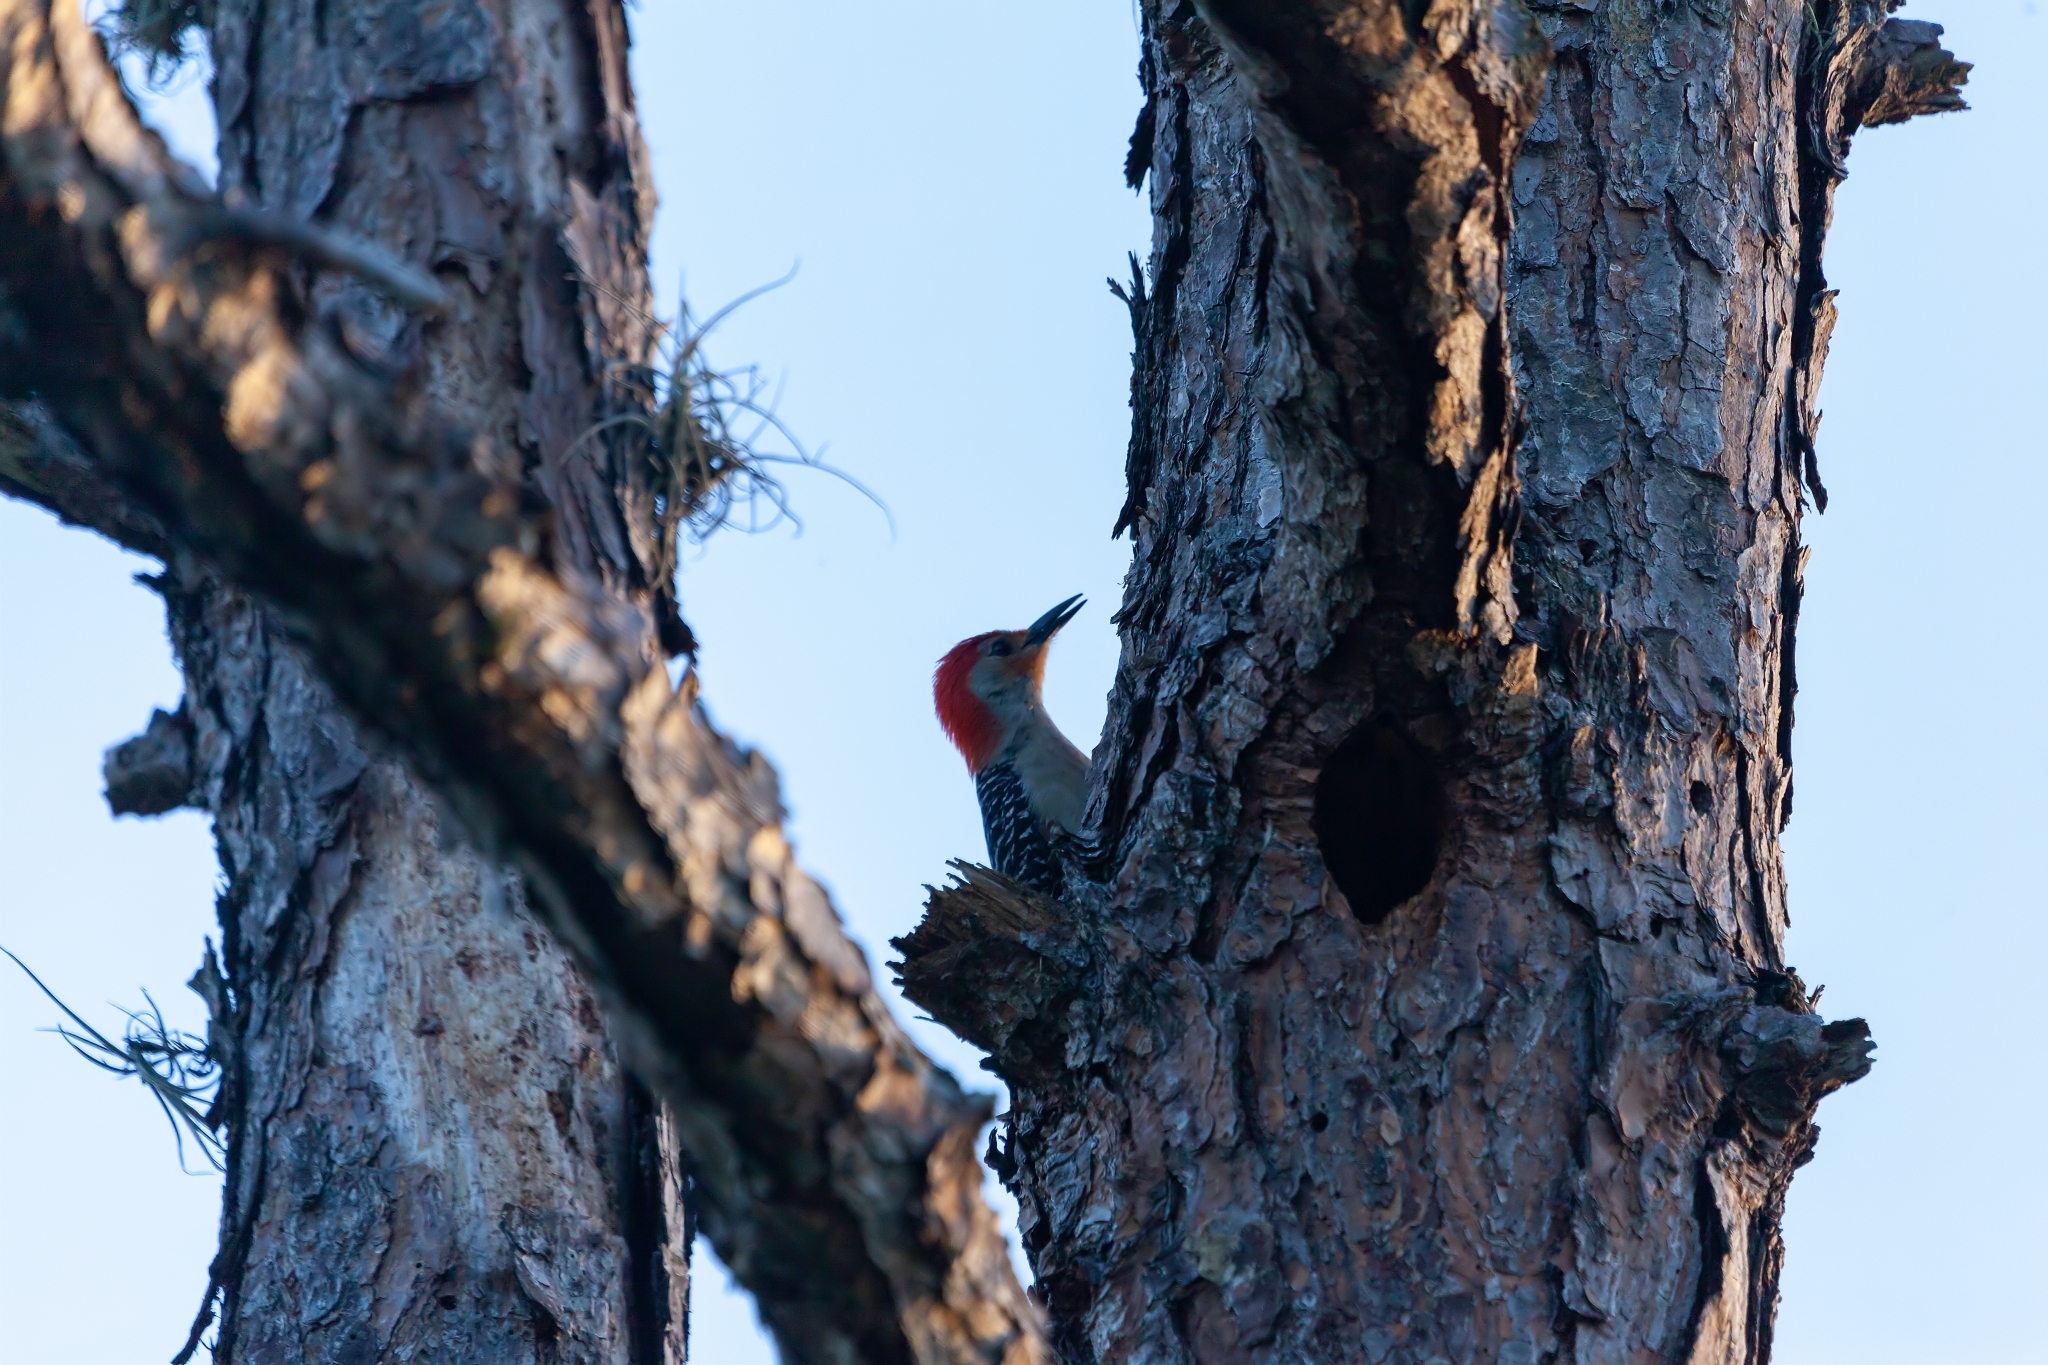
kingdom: Animalia
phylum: Chordata
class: Aves
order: Piciformes
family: Picidae
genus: Melanerpes
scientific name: Melanerpes carolinus
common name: Red-bellied woodpecker
